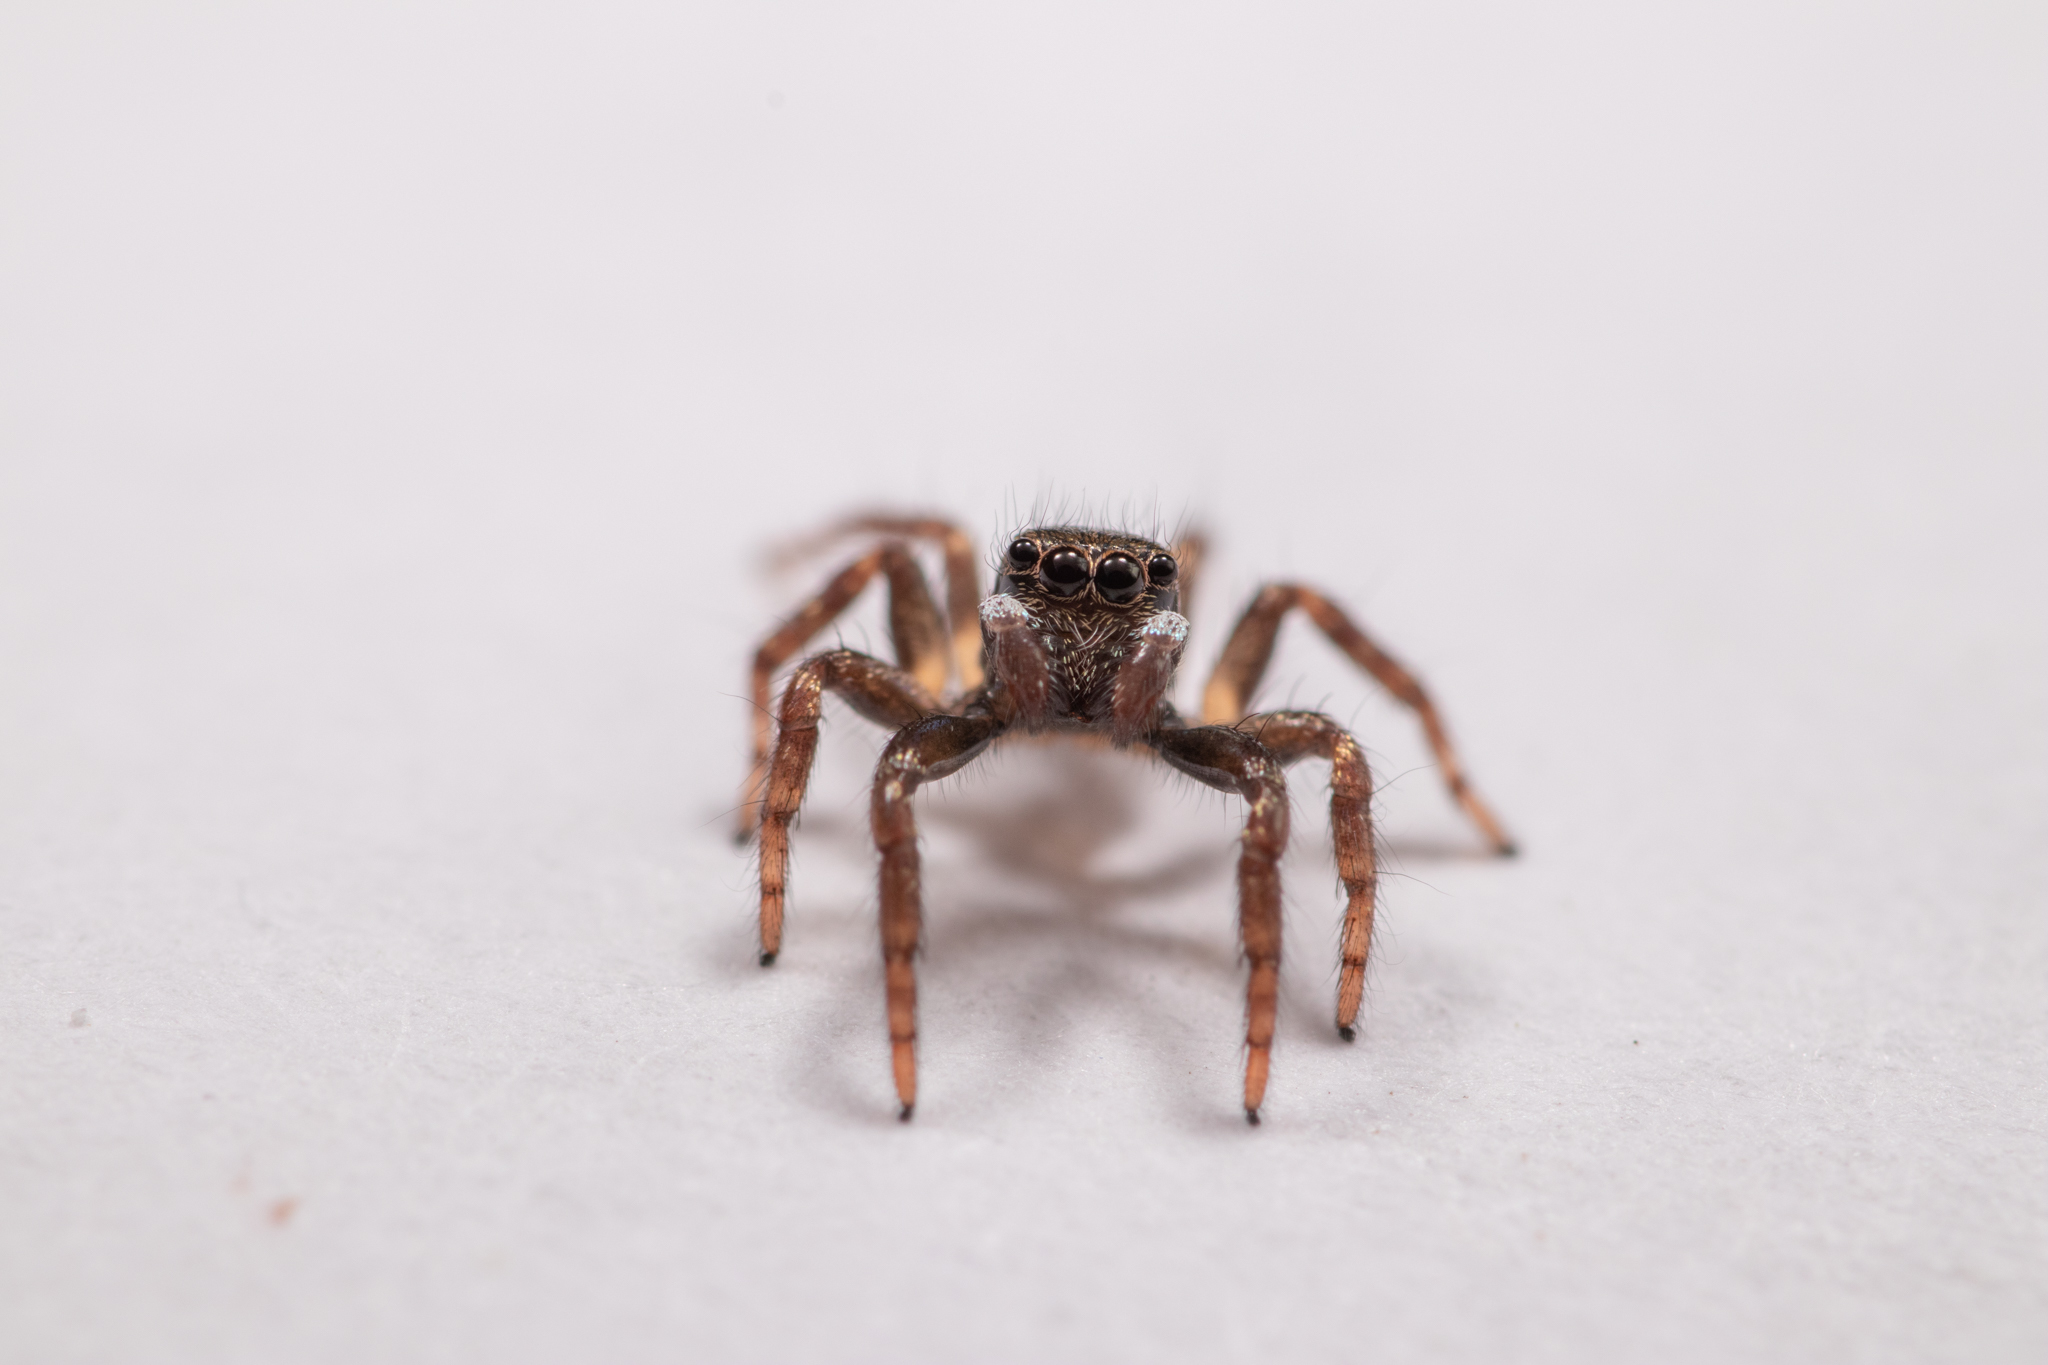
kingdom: Animalia
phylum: Arthropoda
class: Arachnida
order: Araneae
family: Salticidae
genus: Anasaitis
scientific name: Anasaitis canosa
